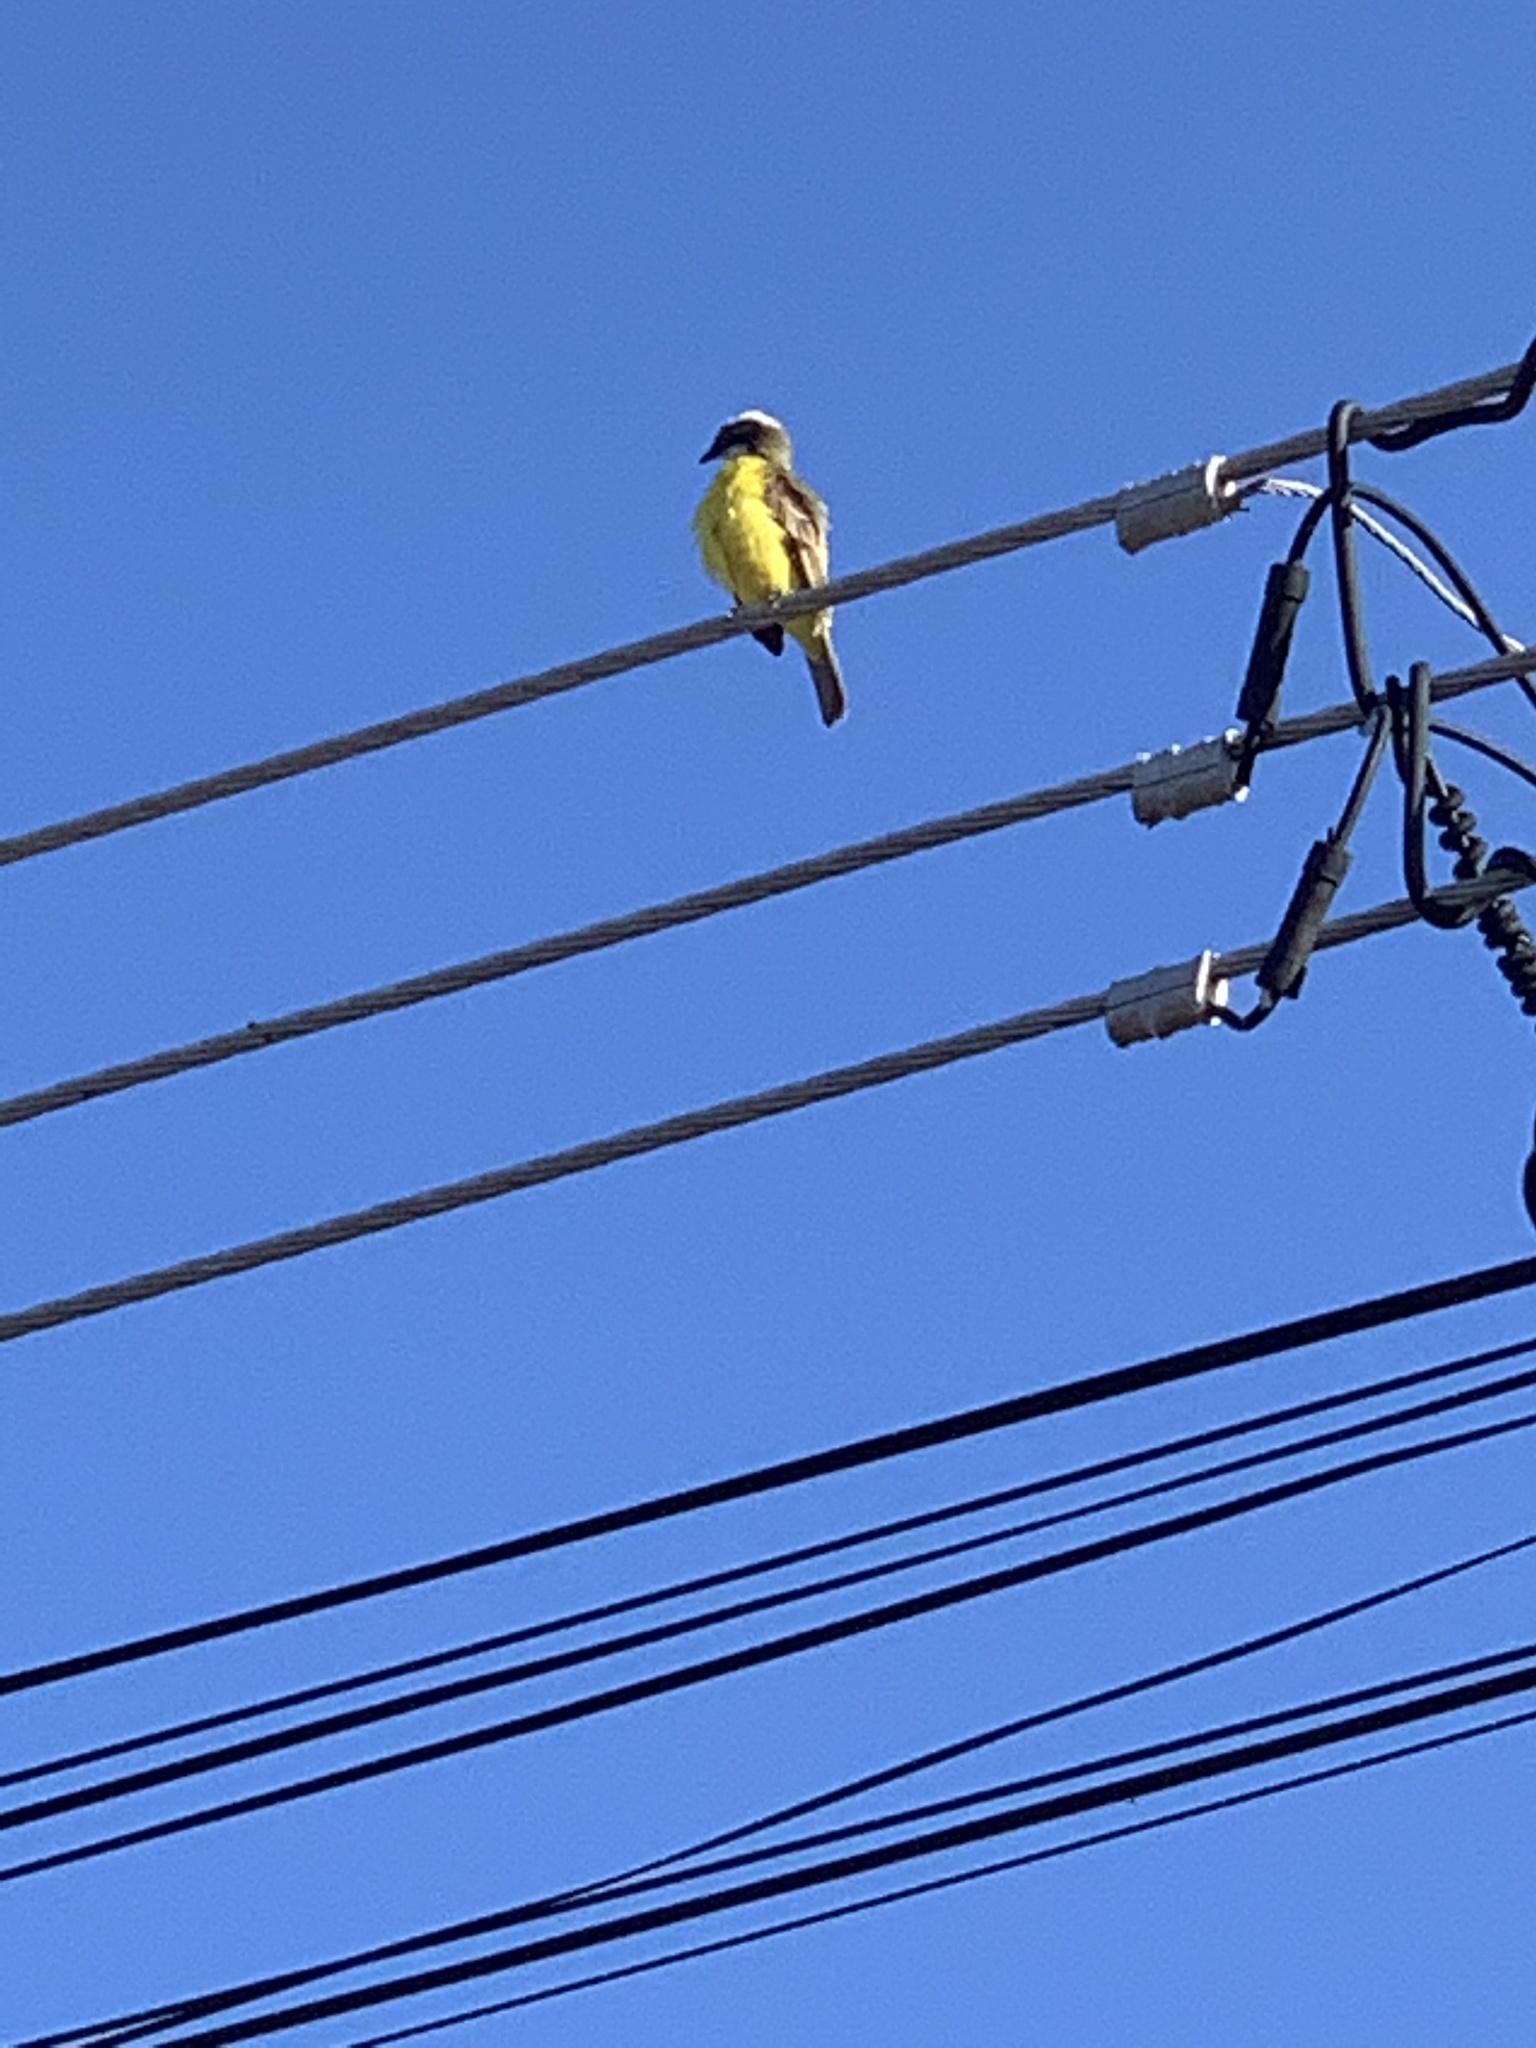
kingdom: Animalia
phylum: Chordata
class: Aves
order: Passeriformes
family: Tyrannidae
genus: Myiozetetes
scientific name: Myiozetetes similis
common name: Social flycatcher
